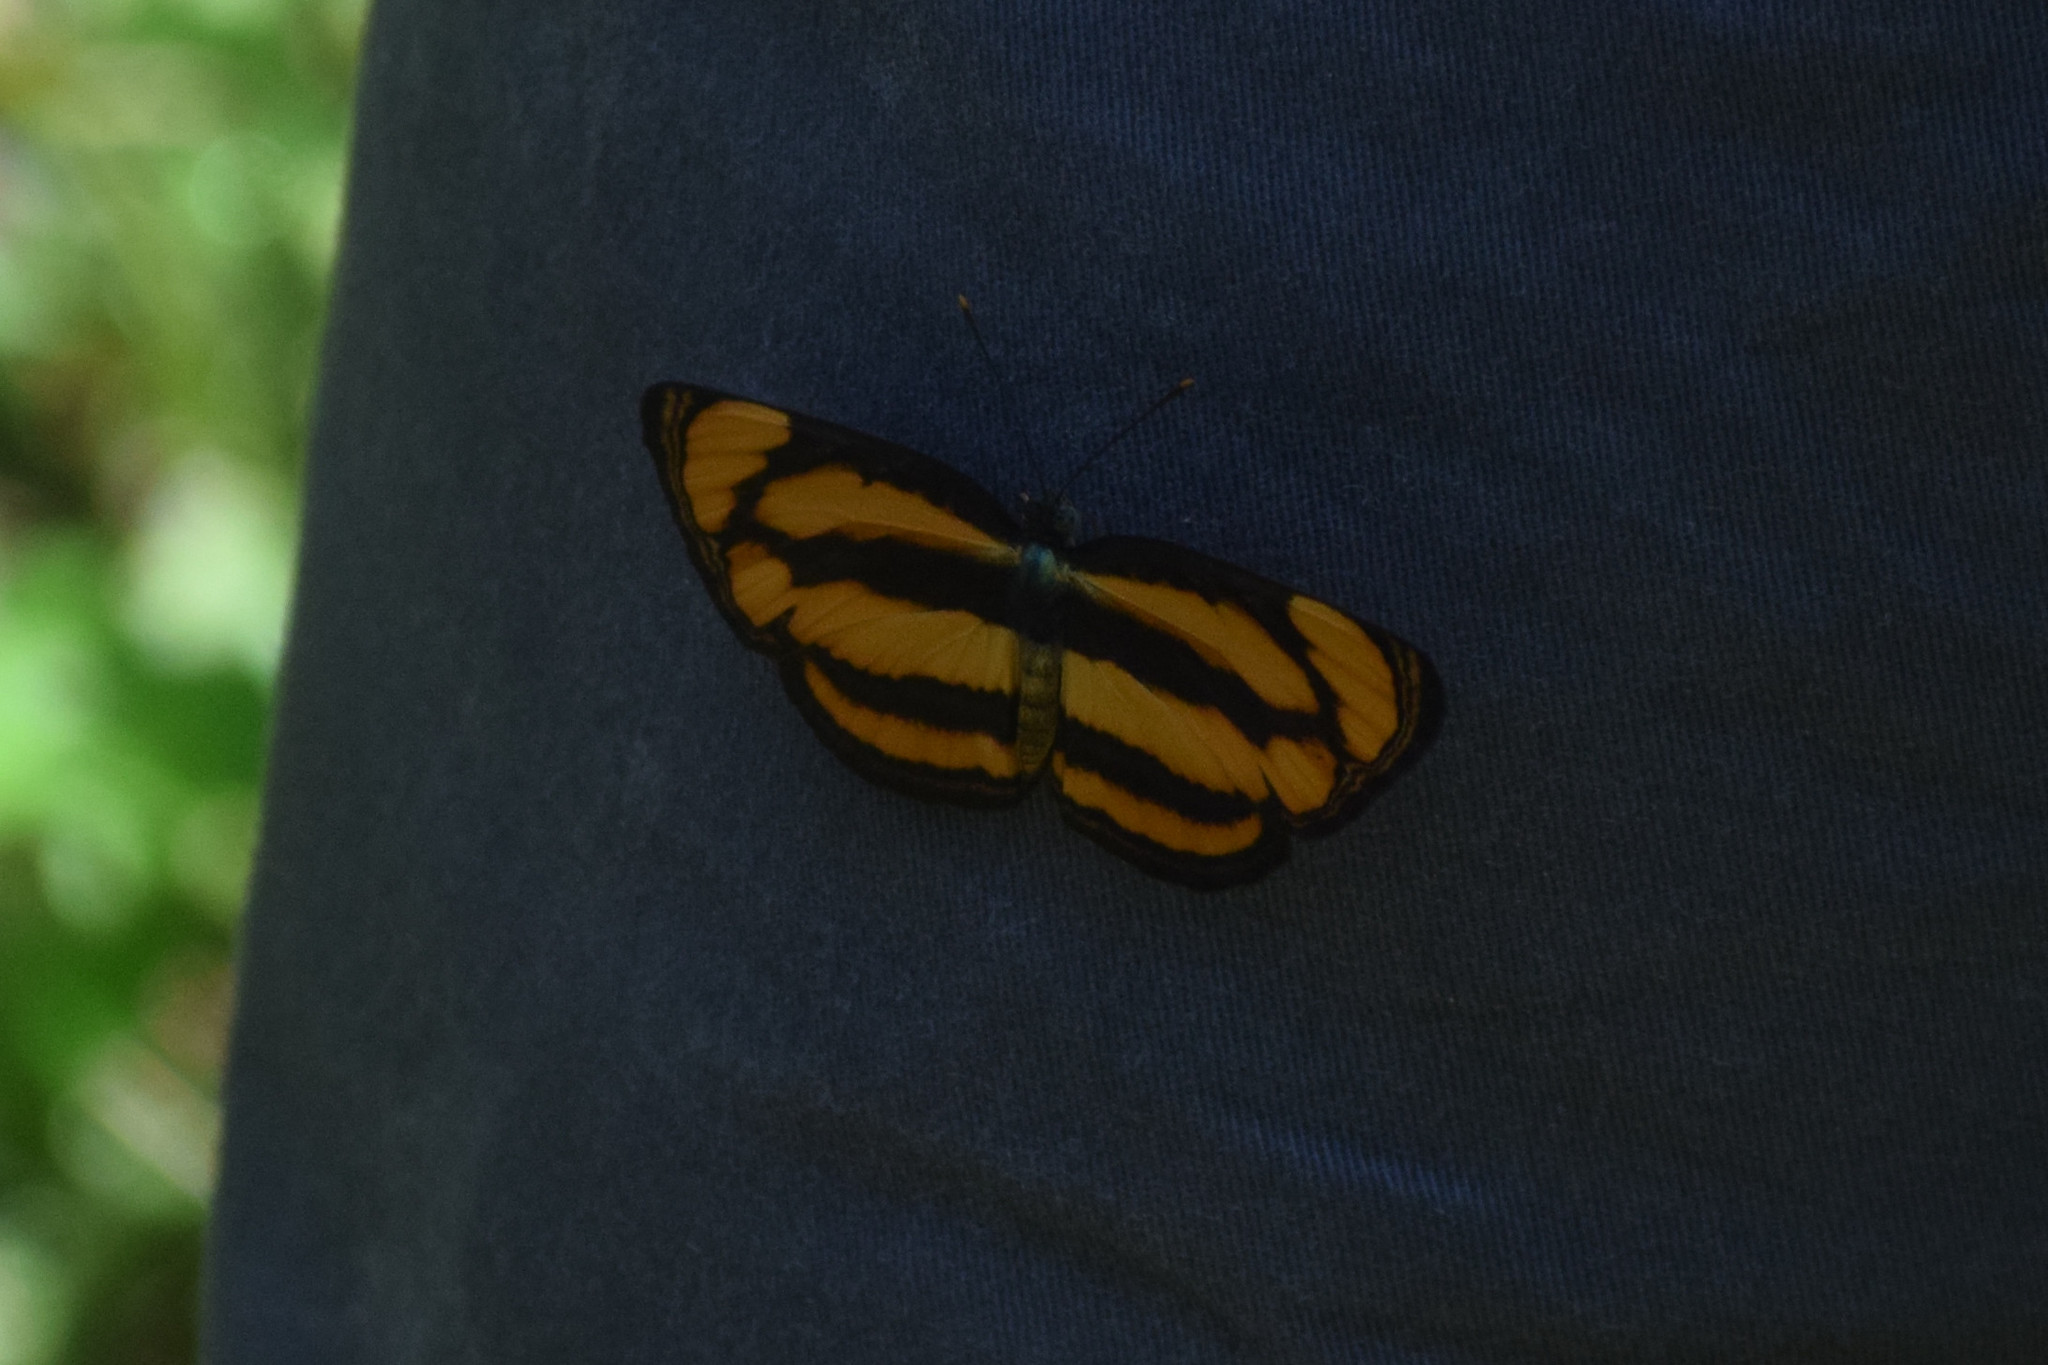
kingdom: Animalia
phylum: Arthropoda
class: Insecta
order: Lepidoptera
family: Nymphalidae
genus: Pantoporia
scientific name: Pantoporia paraka
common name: Perak lascar
